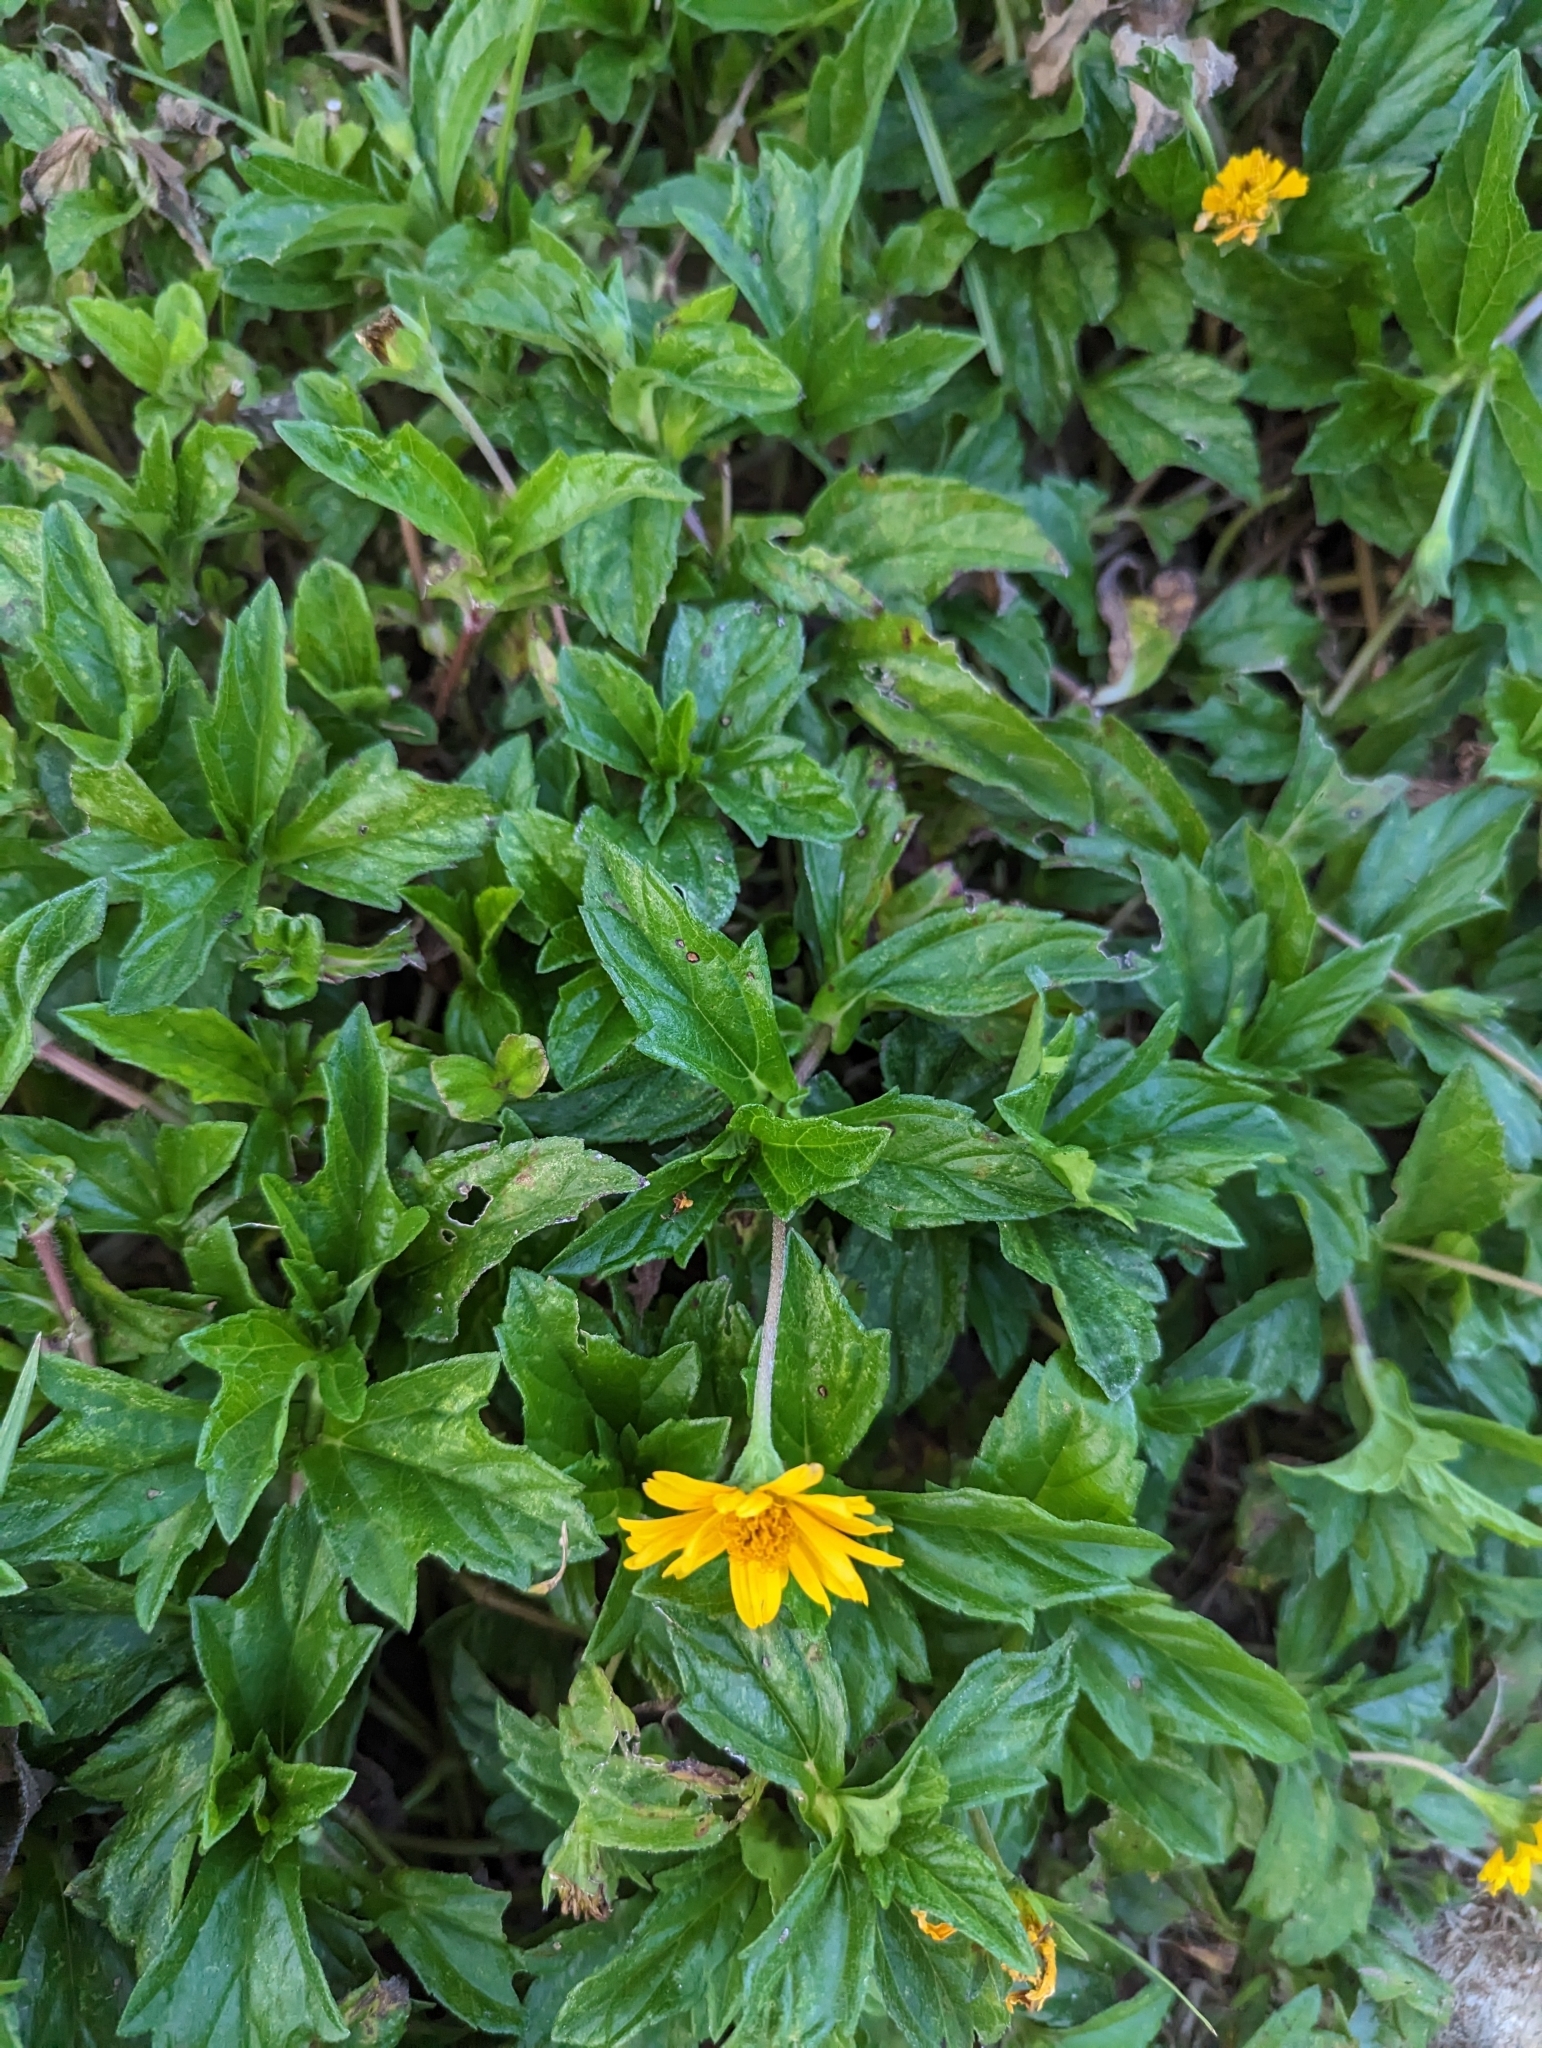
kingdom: Plantae
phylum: Tracheophyta
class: Magnoliopsida
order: Asterales
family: Asteraceae
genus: Sphagneticola
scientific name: Sphagneticola trilobata
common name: Bay biscayne creeping-oxeye
